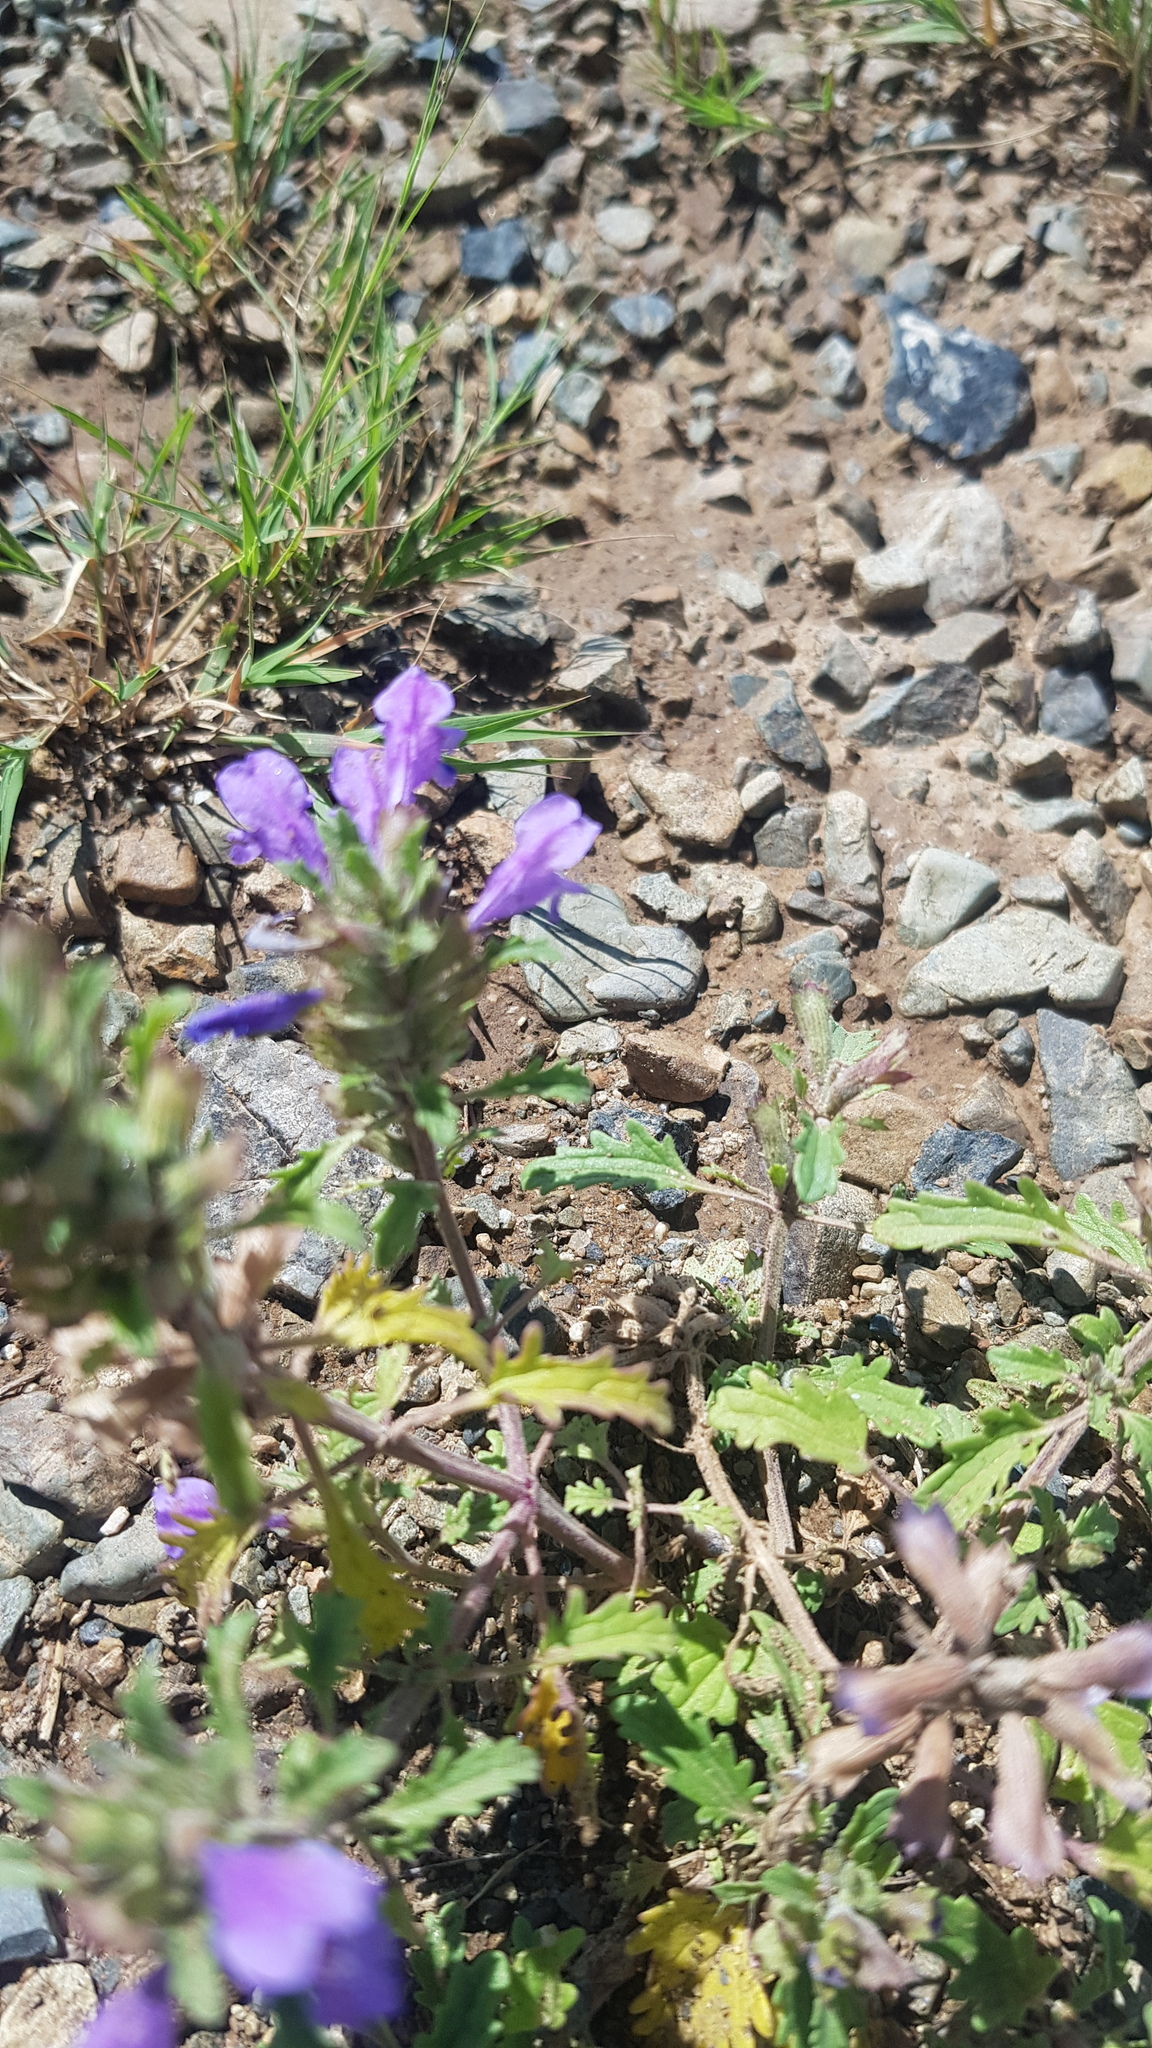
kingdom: Plantae
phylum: Tracheophyta
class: Magnoliopsida
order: Lamiales
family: Lamiaceae
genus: Dracocephalum
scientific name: Dracocephalum foetidum
